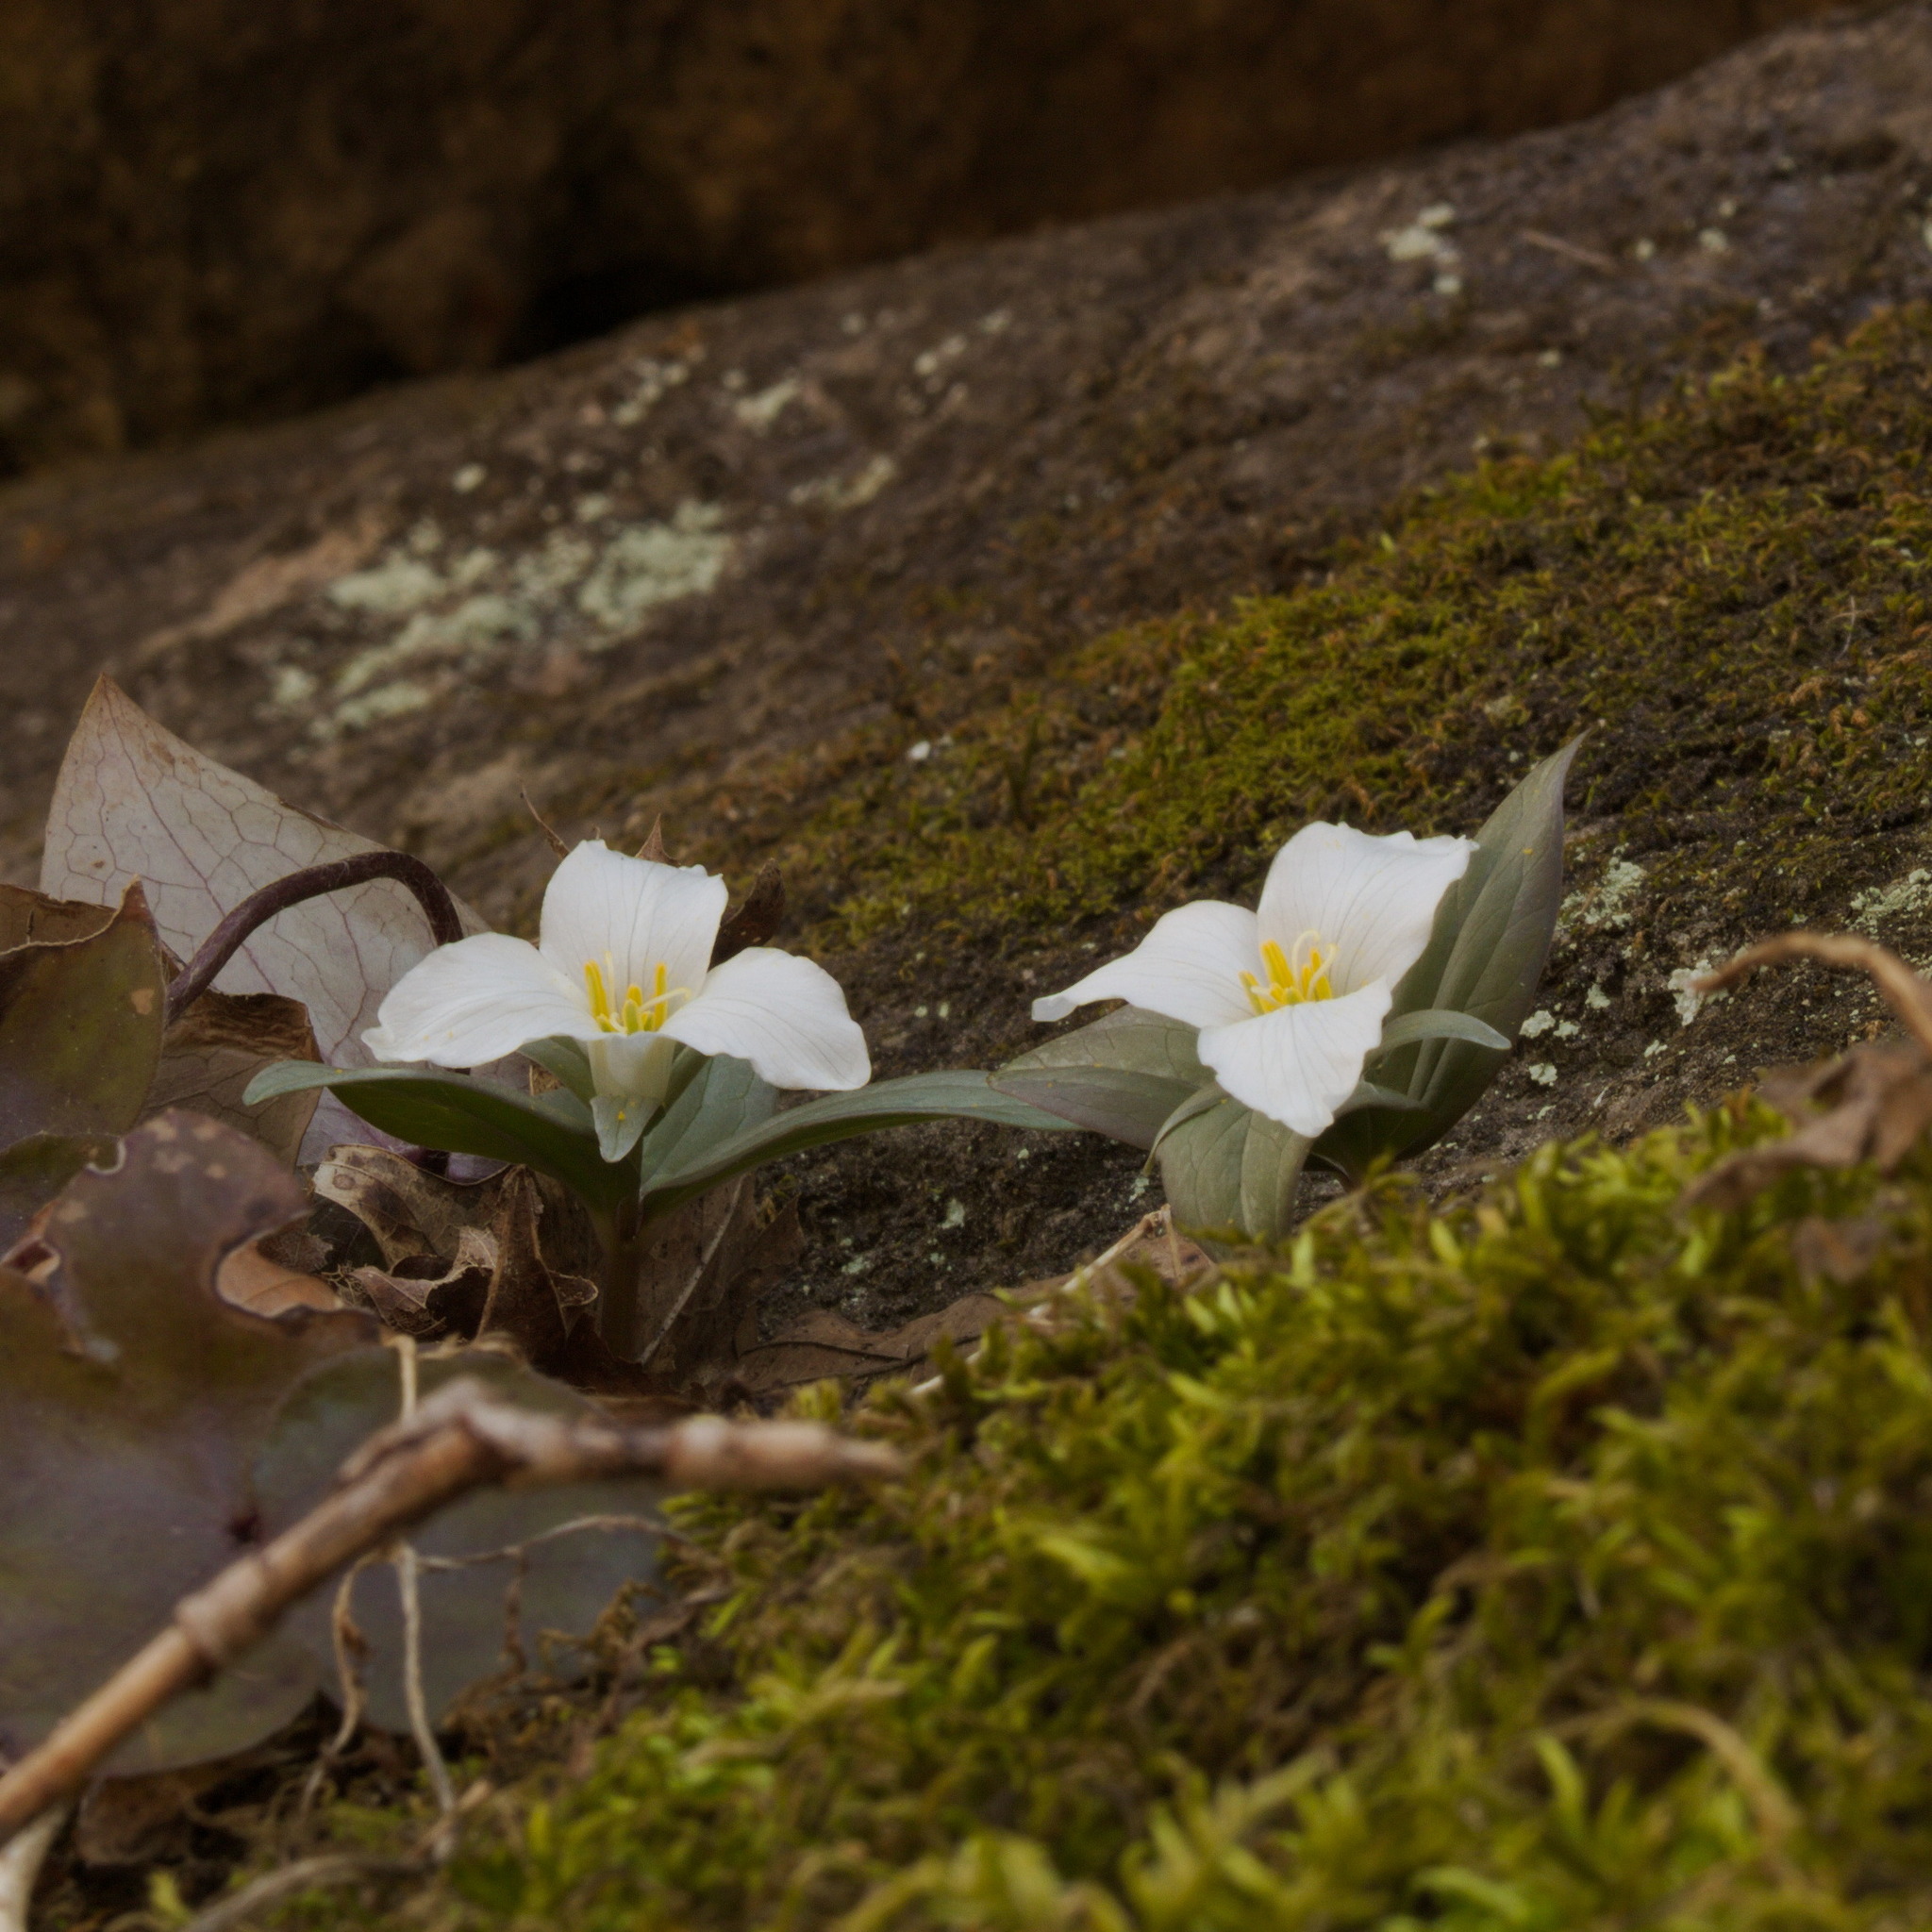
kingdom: Plantae
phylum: Tracheophyta
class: Liliopsida
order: Liliales
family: Melanthiaceae
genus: Trillium
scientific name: Trillium nivale
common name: Dwarf white trillium
